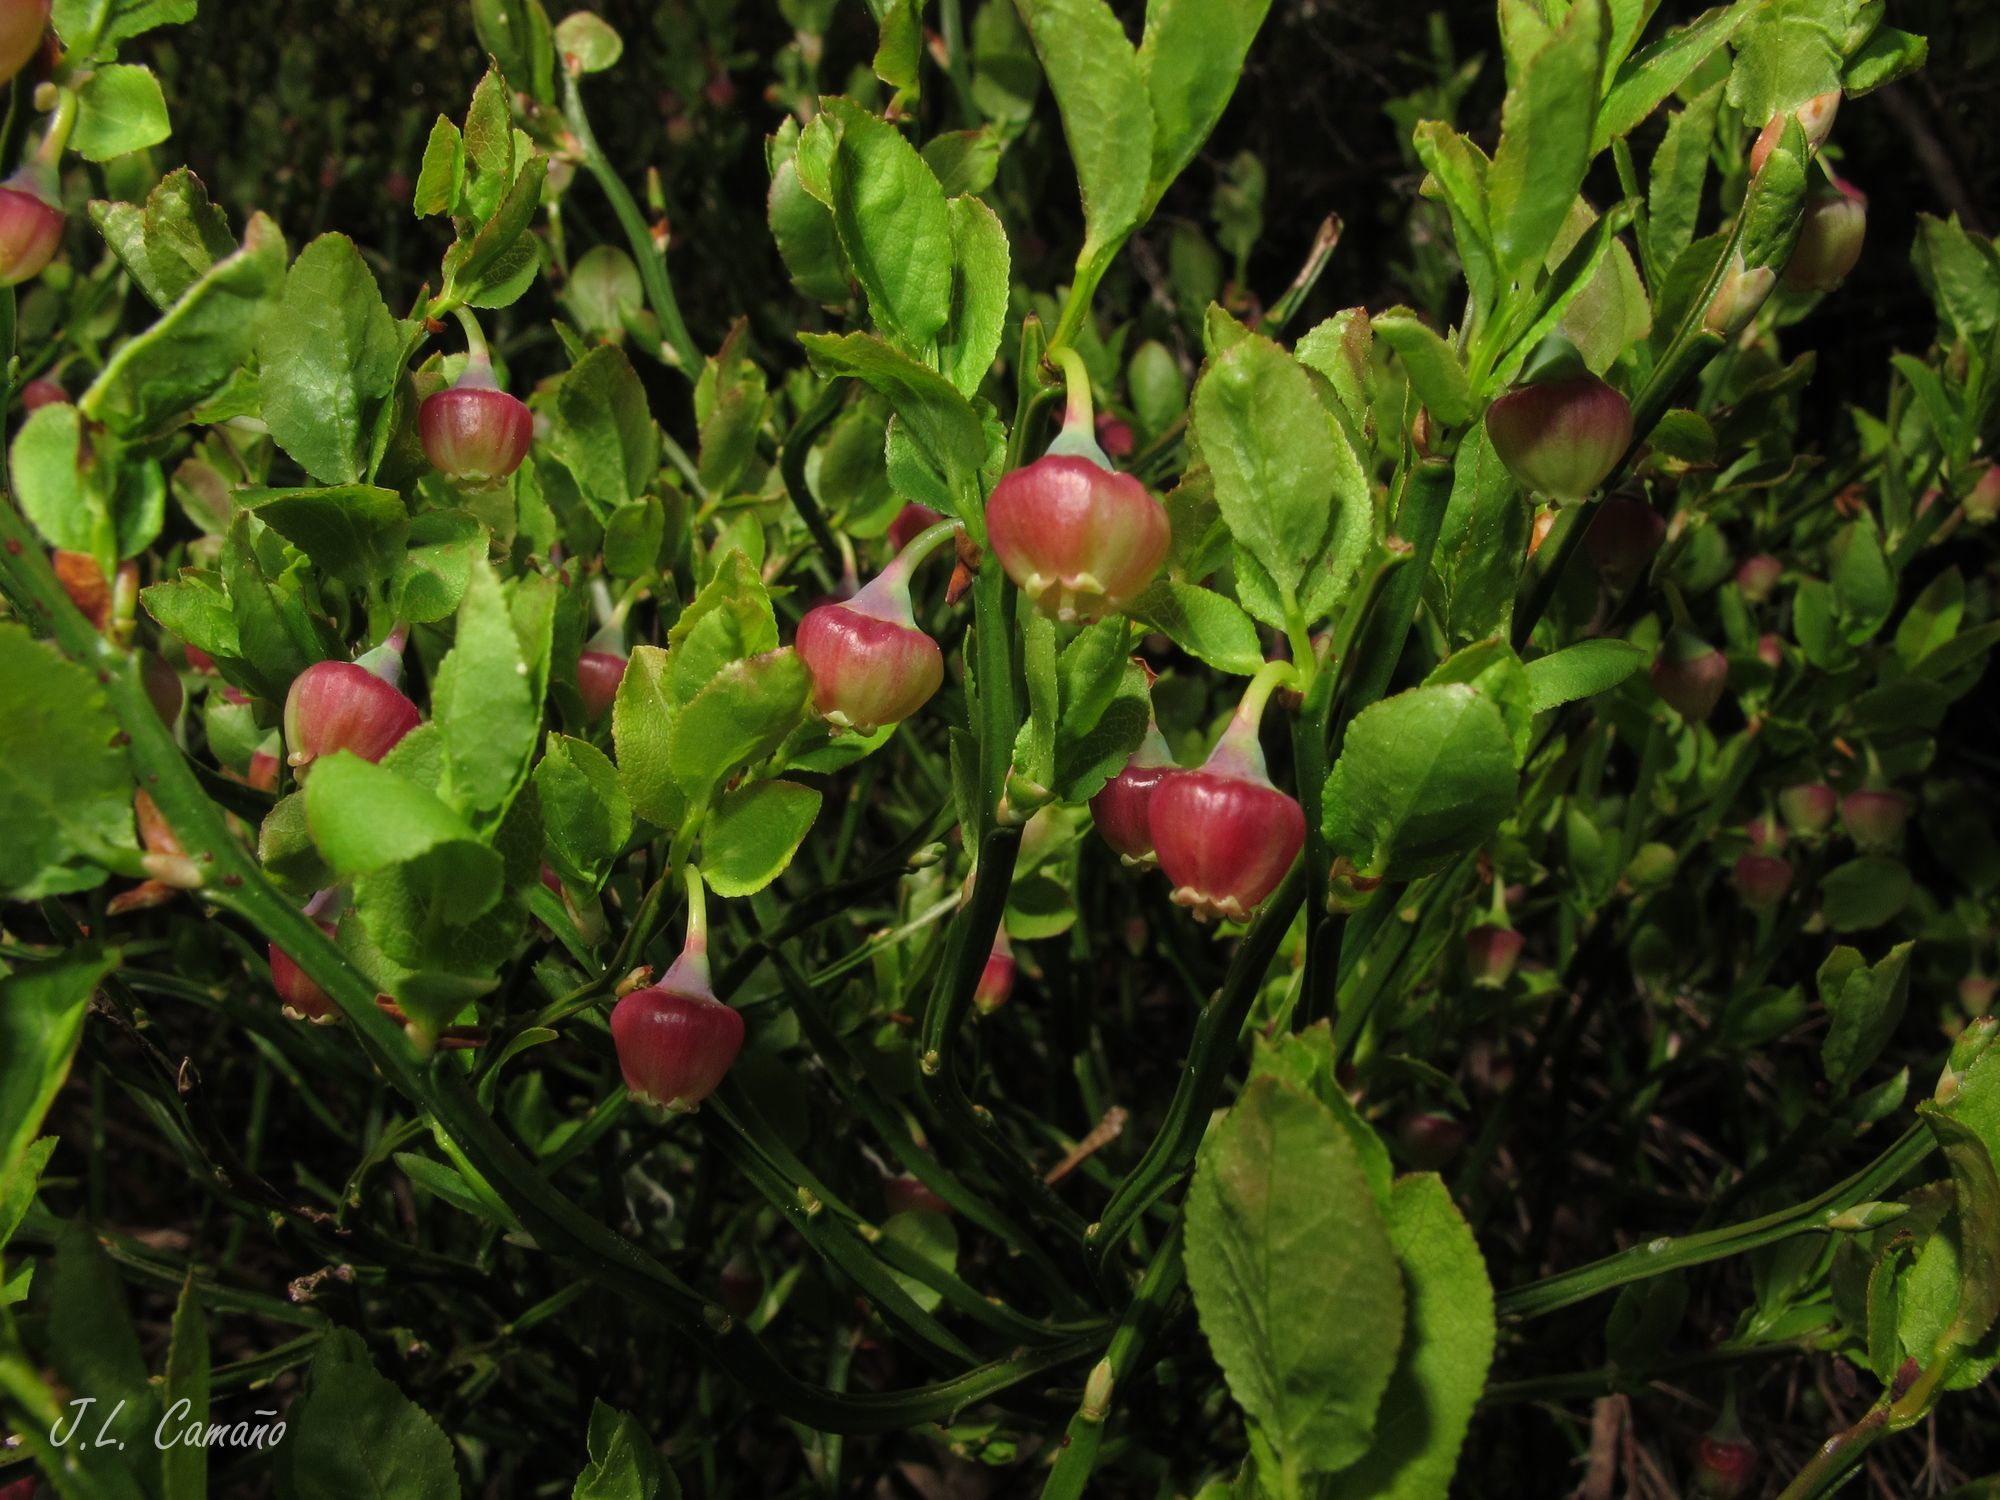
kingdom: Plantae
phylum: Tracheophyta
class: Magnoliopsida
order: Ericales
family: Ericaceae
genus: Vaccinium
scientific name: Vaccinium myrtillus
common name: Bilberry
